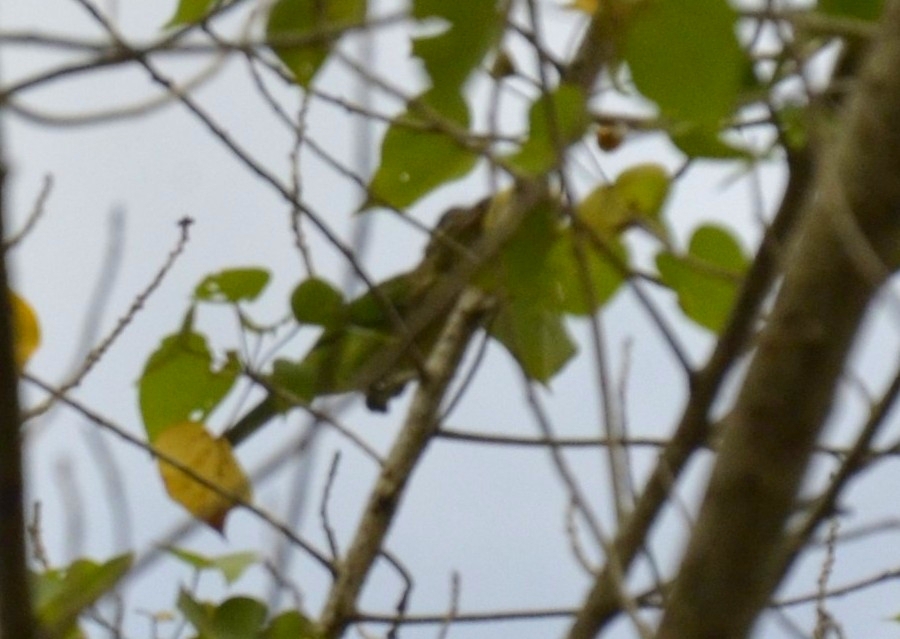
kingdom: Animalia
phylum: Chordata
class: Aves
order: Piciformes
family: Megalaimidae
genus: Psilopogon
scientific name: Psilopogon viridis
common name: White-cheeked barbet
